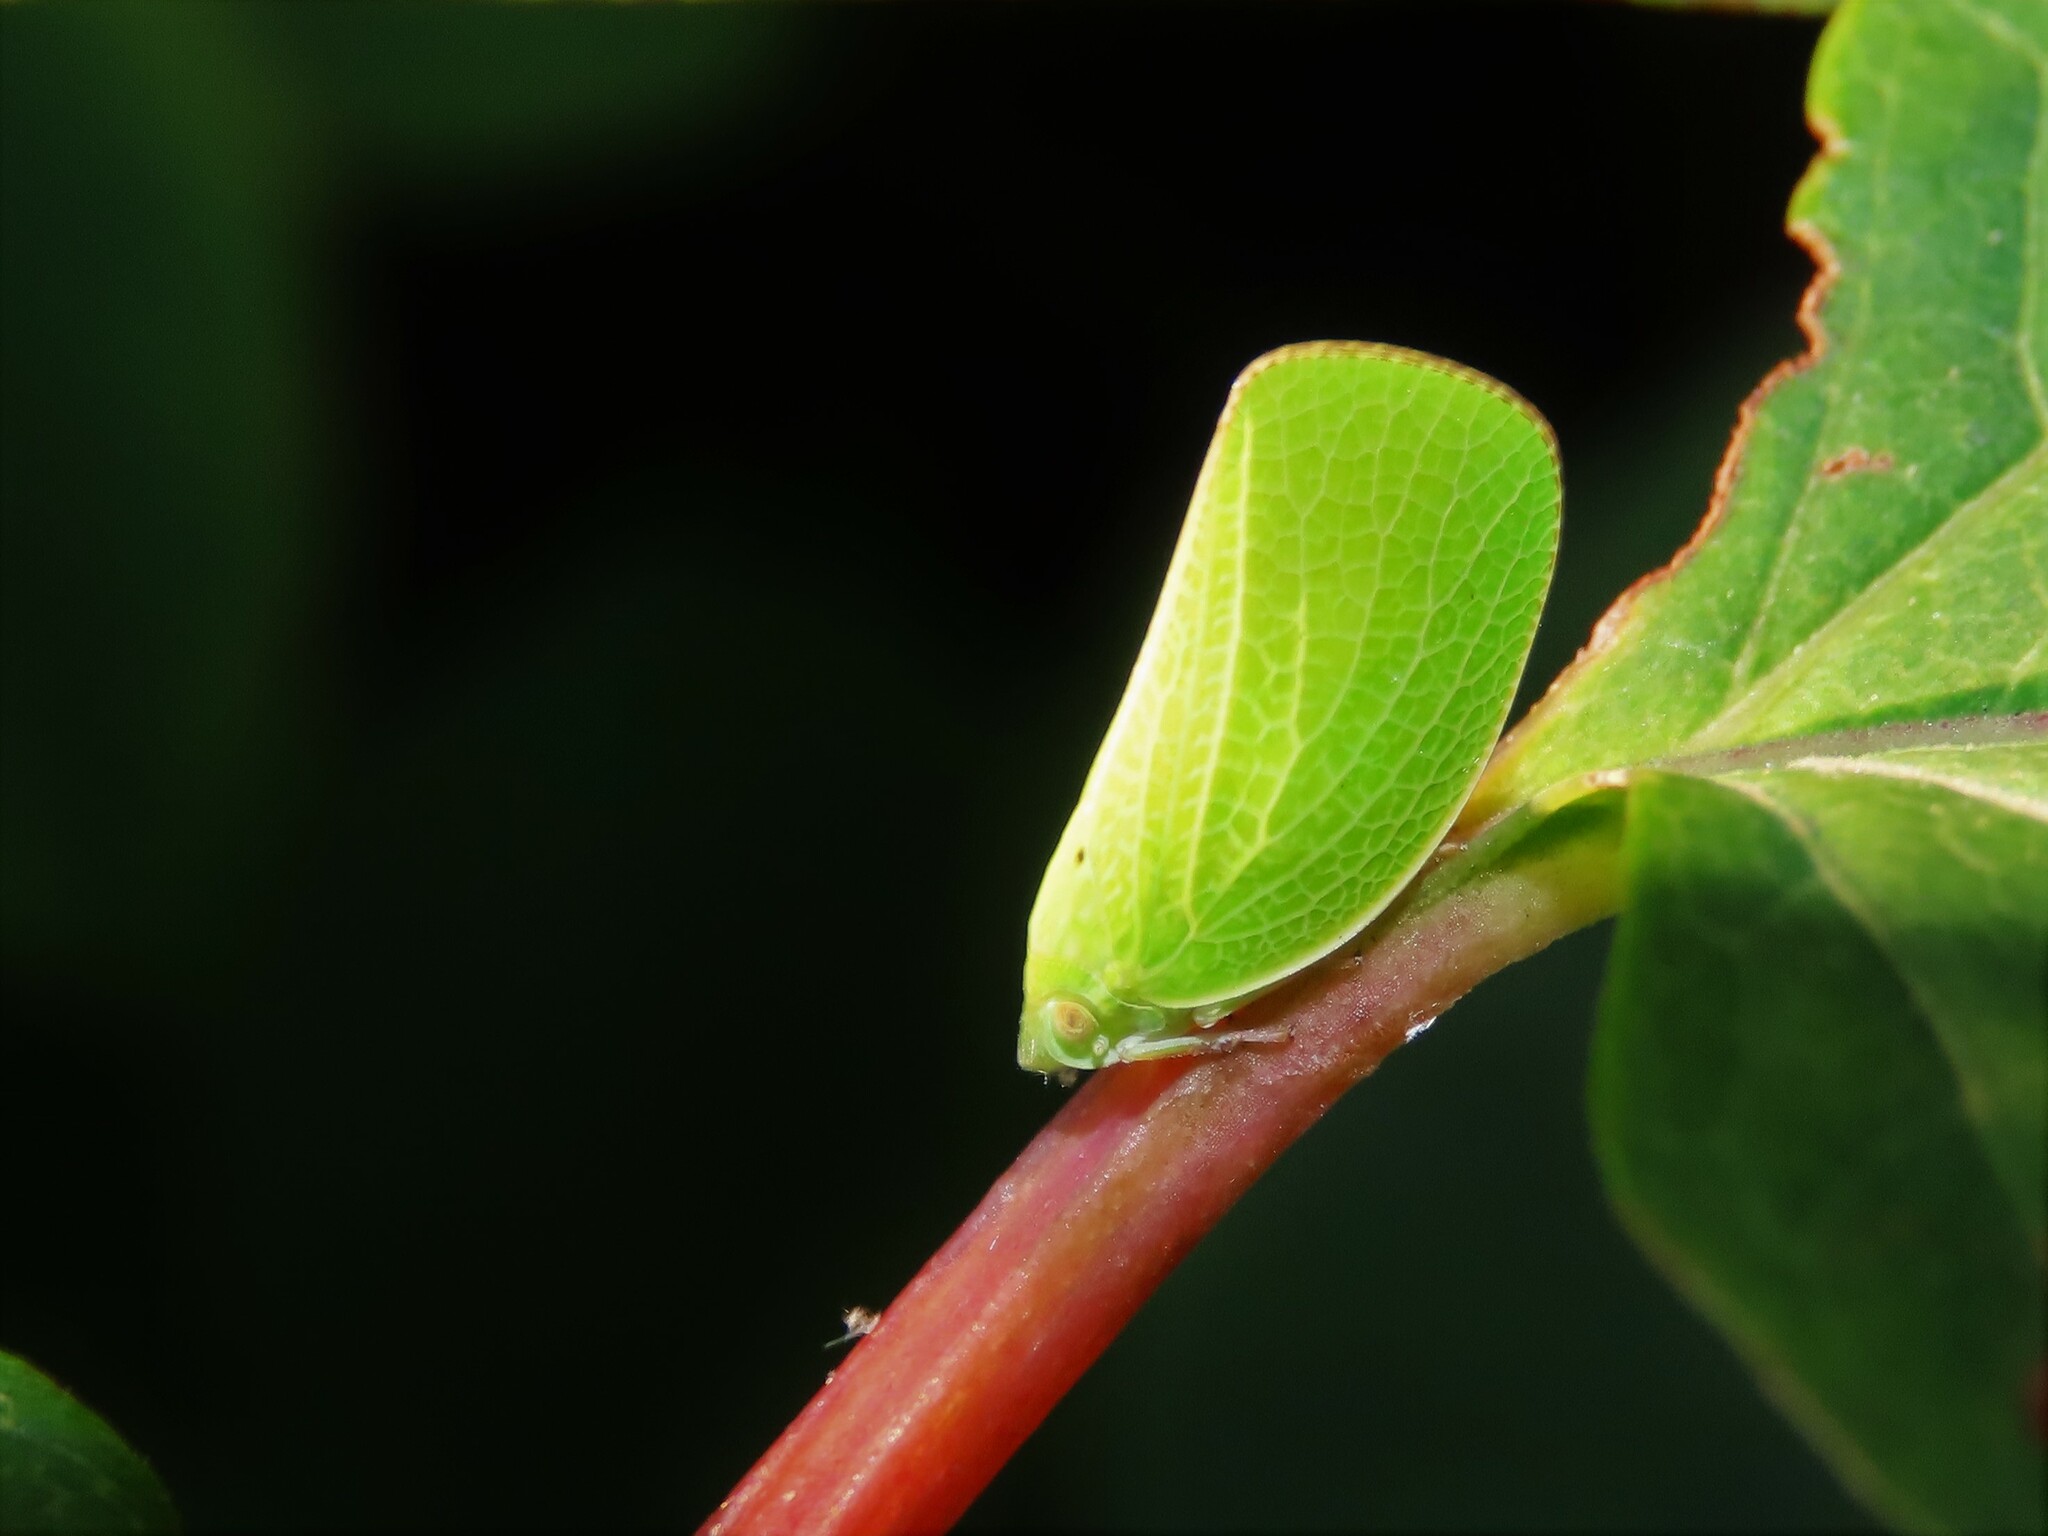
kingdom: Animalia
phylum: Arthropoda
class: Insecta
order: Hemiptera
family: Acanaloniidae
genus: Acanalonia
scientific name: Acanalonia conica
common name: Green cone-headed planthopper
